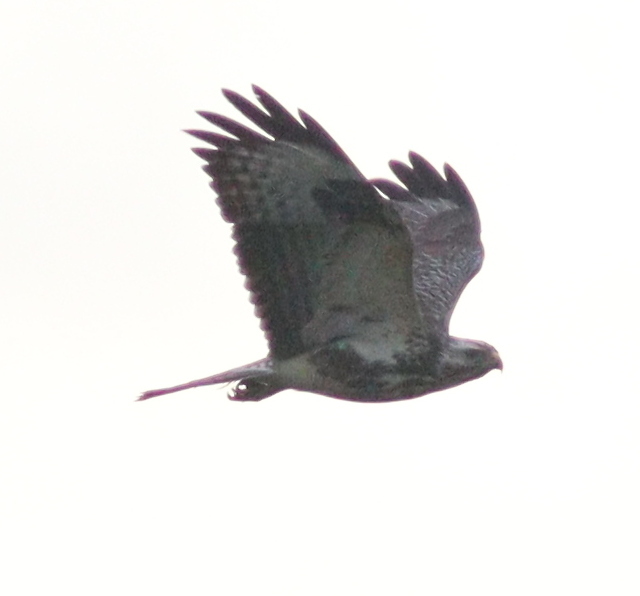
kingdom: Animalia
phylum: Chordata
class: Aves
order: Accipitriformes
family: Accipitridae
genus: Buteo
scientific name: Buteo buteo
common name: Common buzzard
